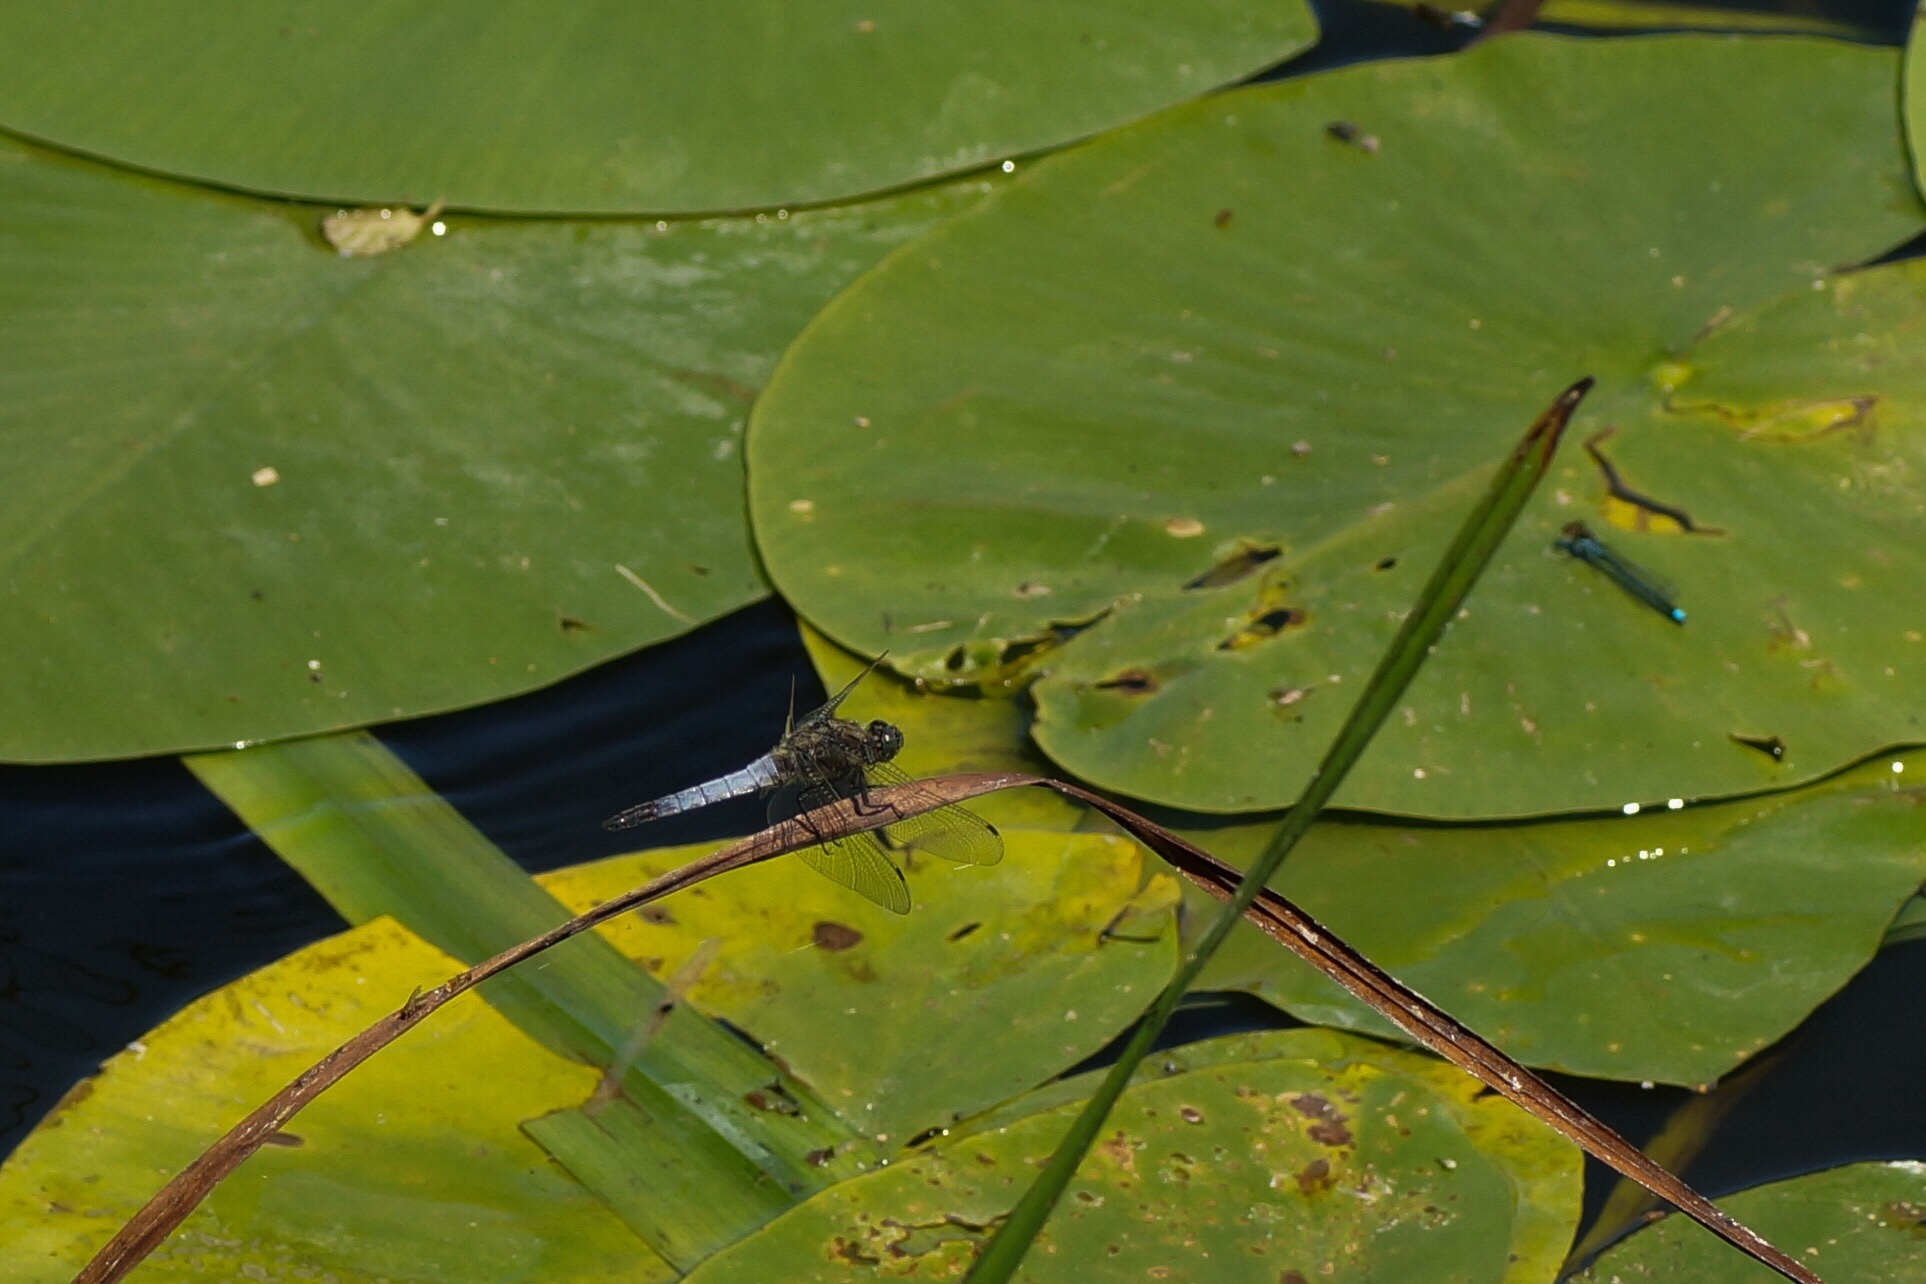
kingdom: Animalia
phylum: Arthropoda
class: Insecta
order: Odonata
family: Libellulidae
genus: Orthetrum
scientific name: Orthetrum cancellatum
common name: Black-tailed skimmer
